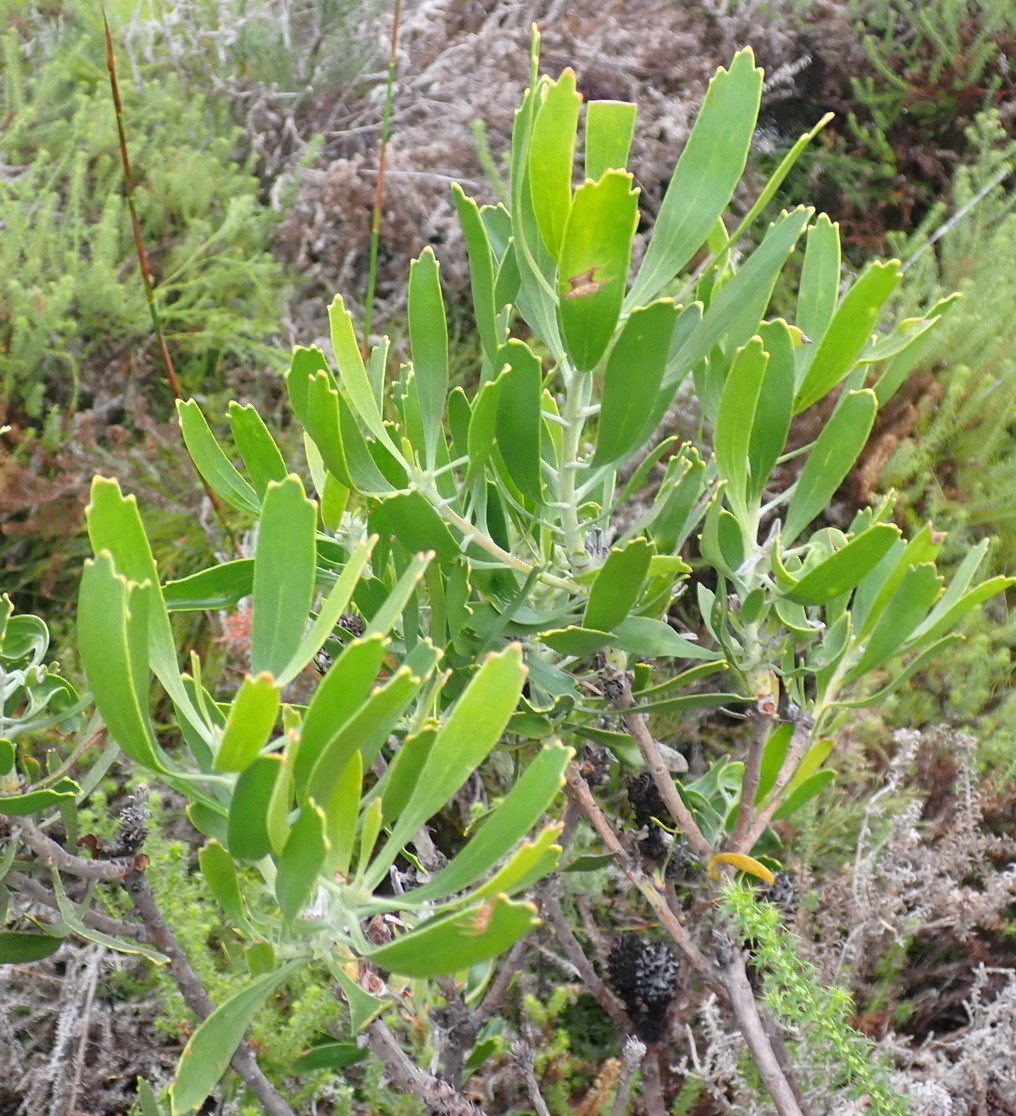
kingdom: Plantae
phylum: Tracheophyta
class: Magnoliopsida
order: Proteales
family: Proteaceae
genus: Leucospermum
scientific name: Leucospermum cuneiforme
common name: Common pincushion
